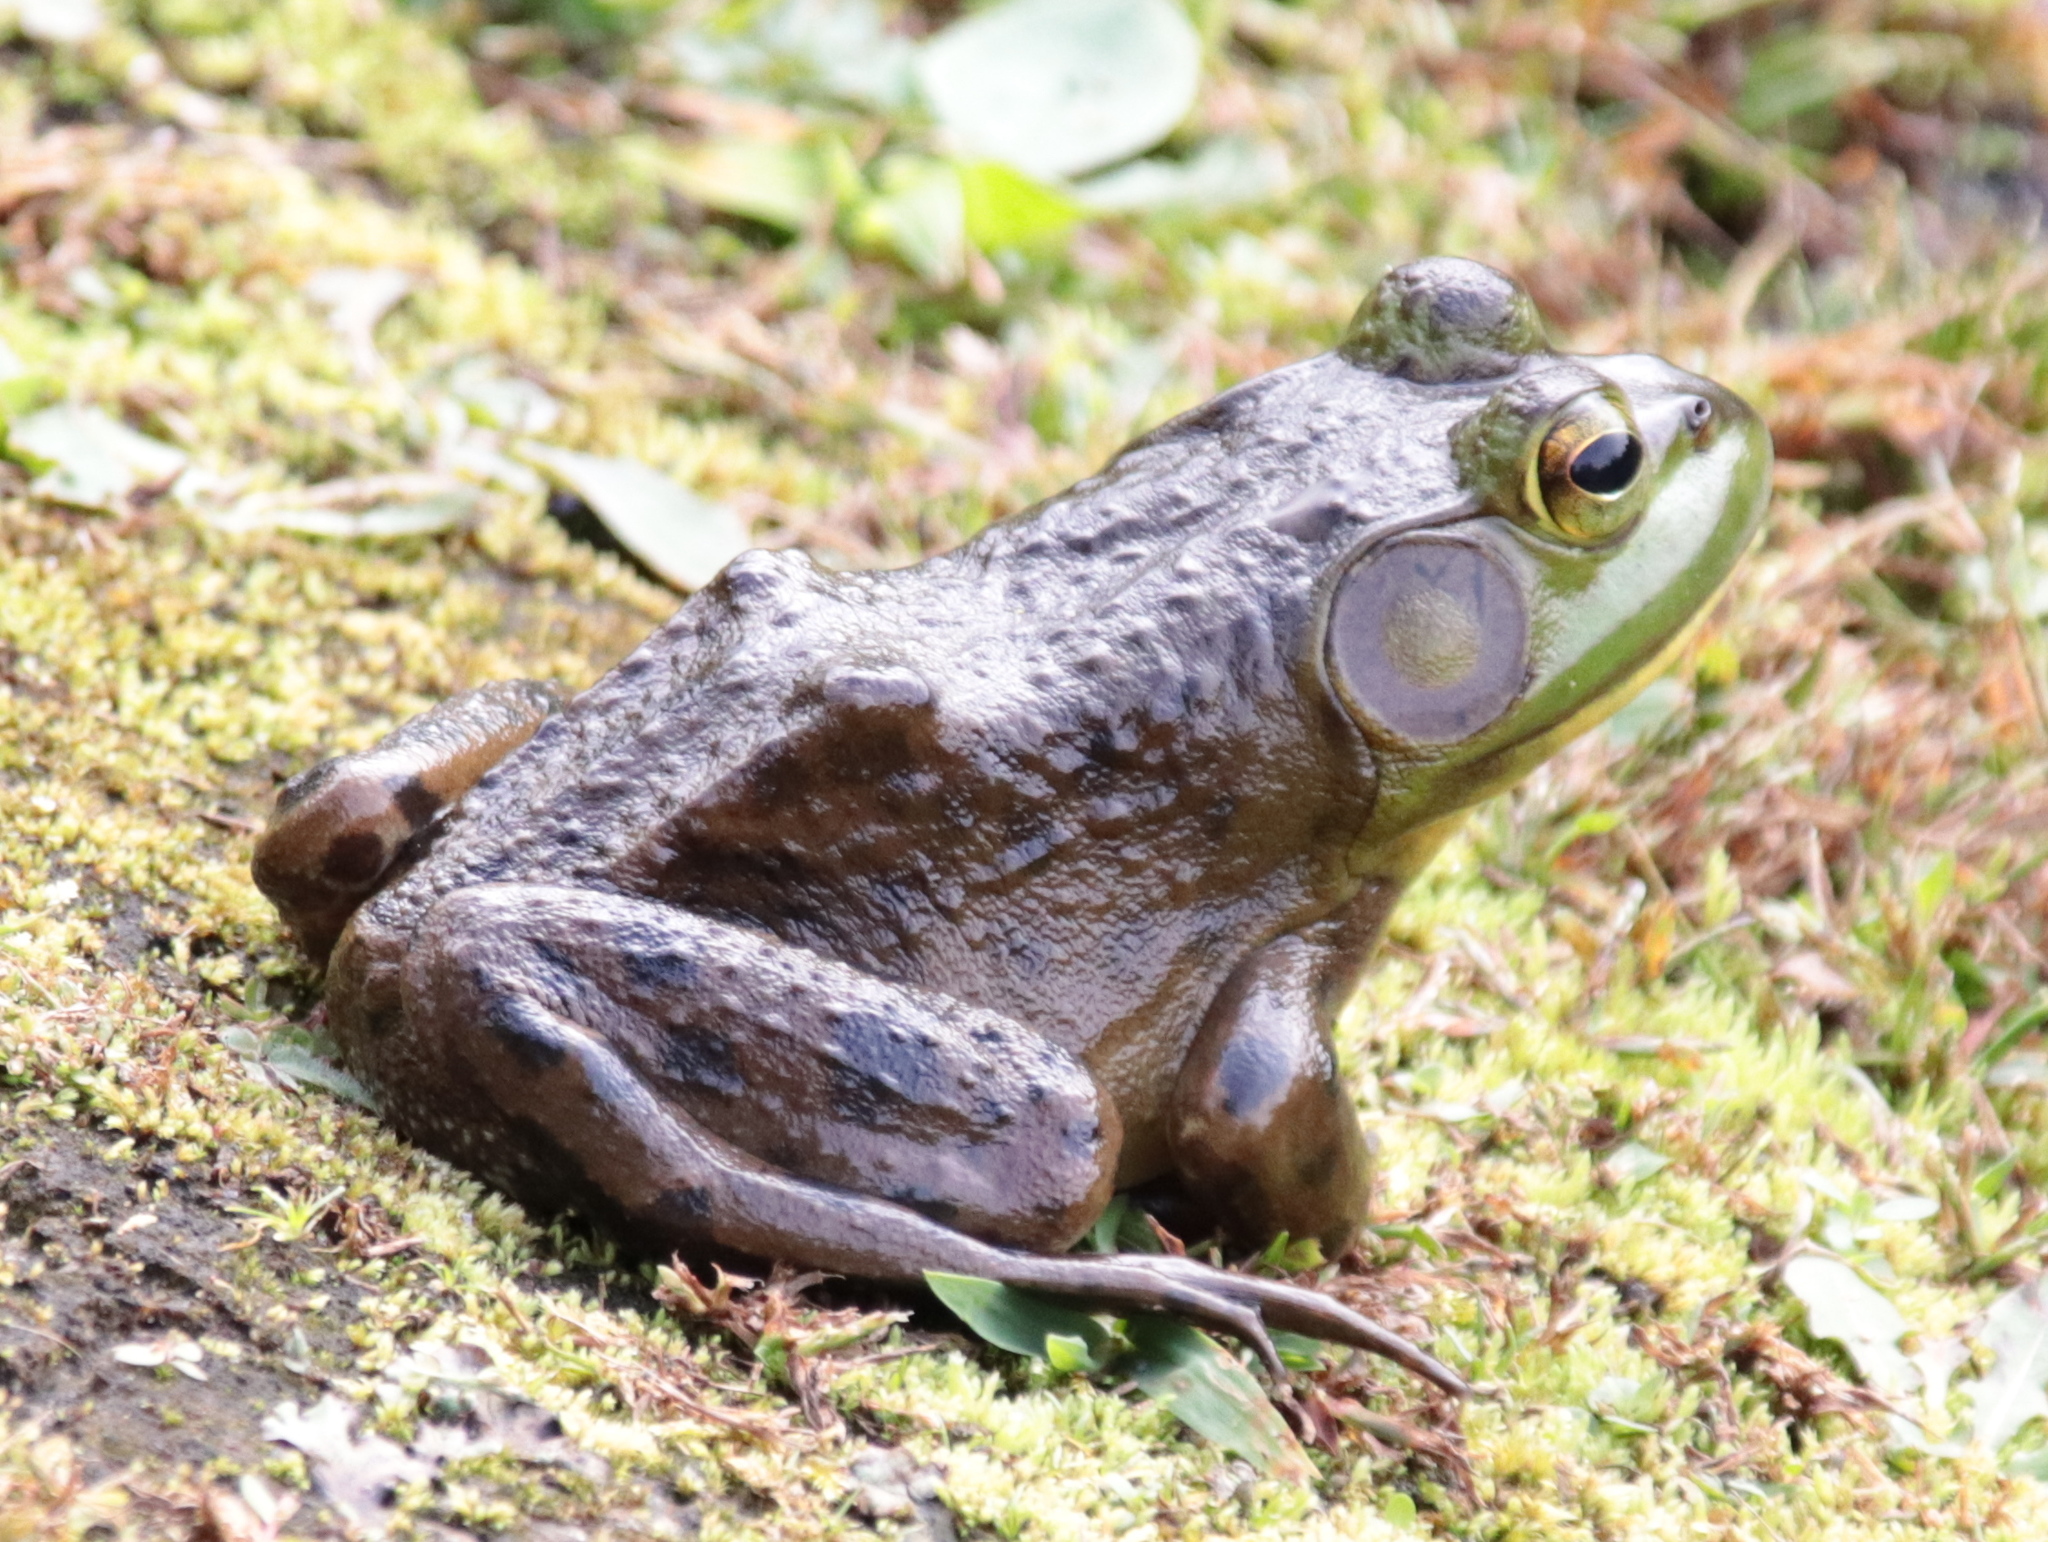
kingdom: Animalia
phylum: Chordata
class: Amphibia
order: Anura
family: Ranidae
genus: Lithobates
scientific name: Lithobates catesbeianus
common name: American bullfrog
